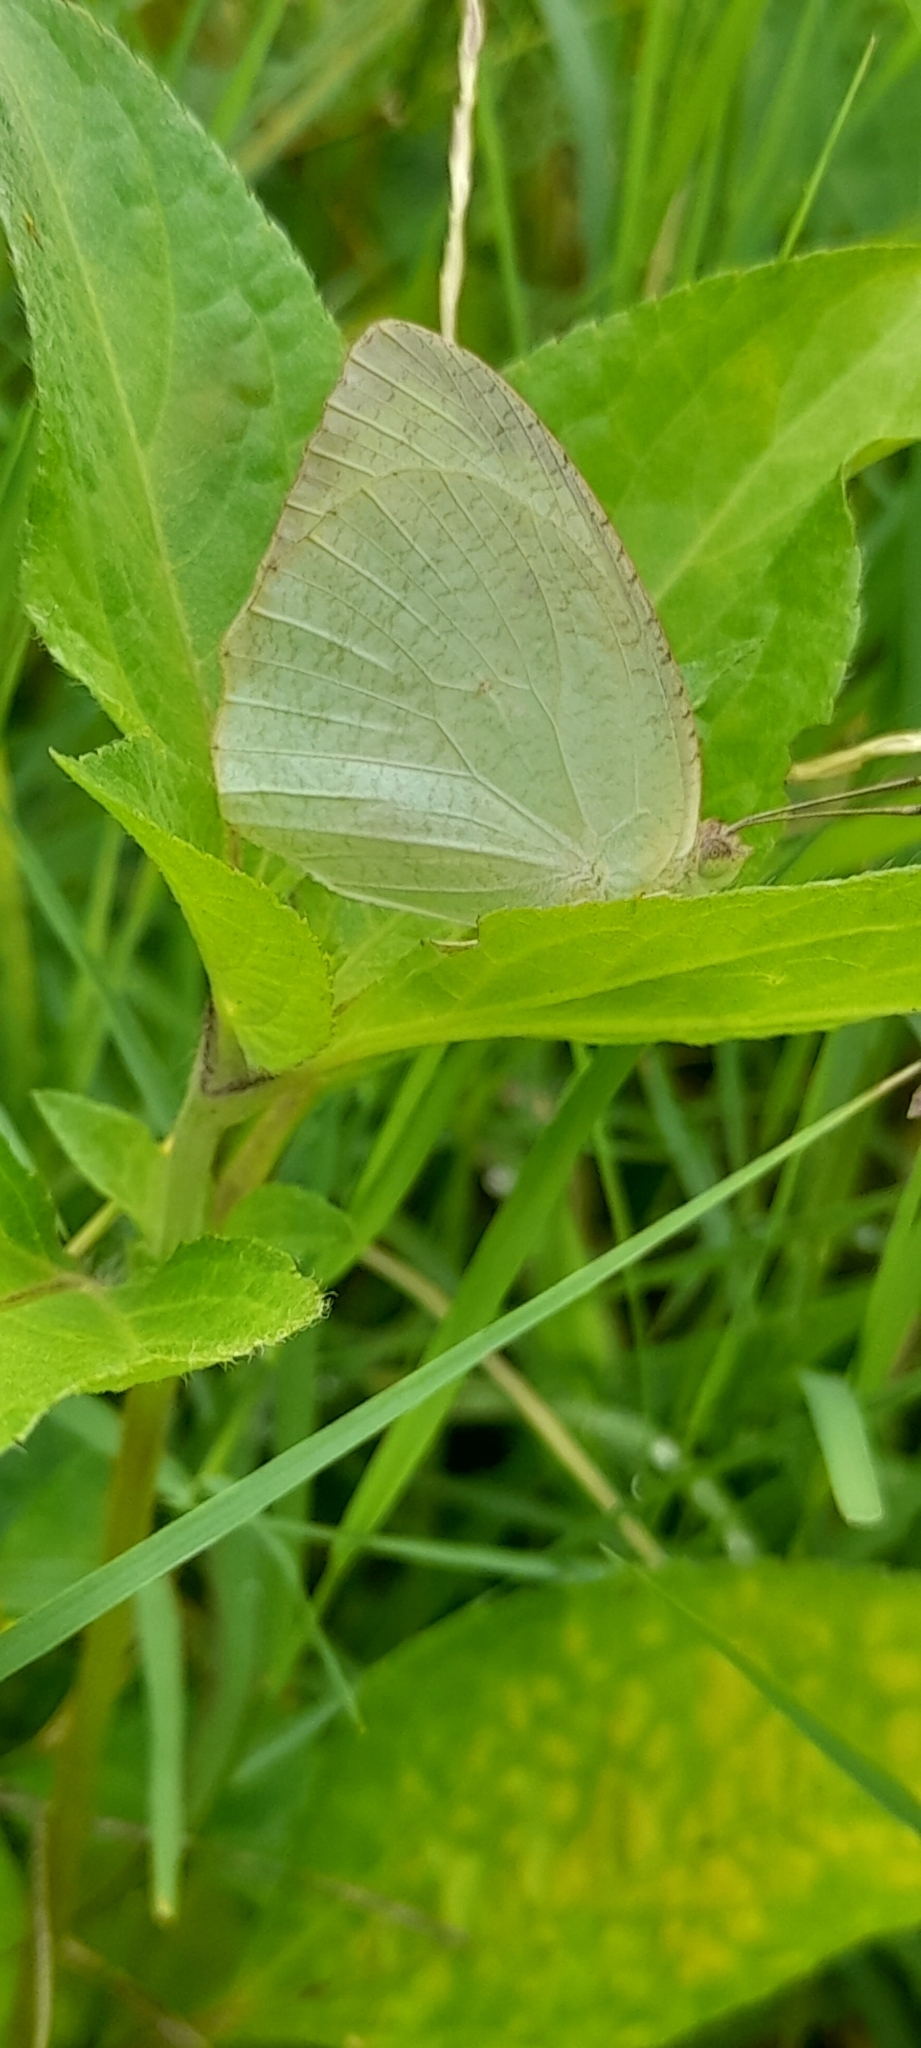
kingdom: Animalia
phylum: Arthropoda
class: Insecta
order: Lepidoptera
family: Pieridae
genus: Catopsilia
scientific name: Catopsilia pyranthe
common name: Mottled emigrant
